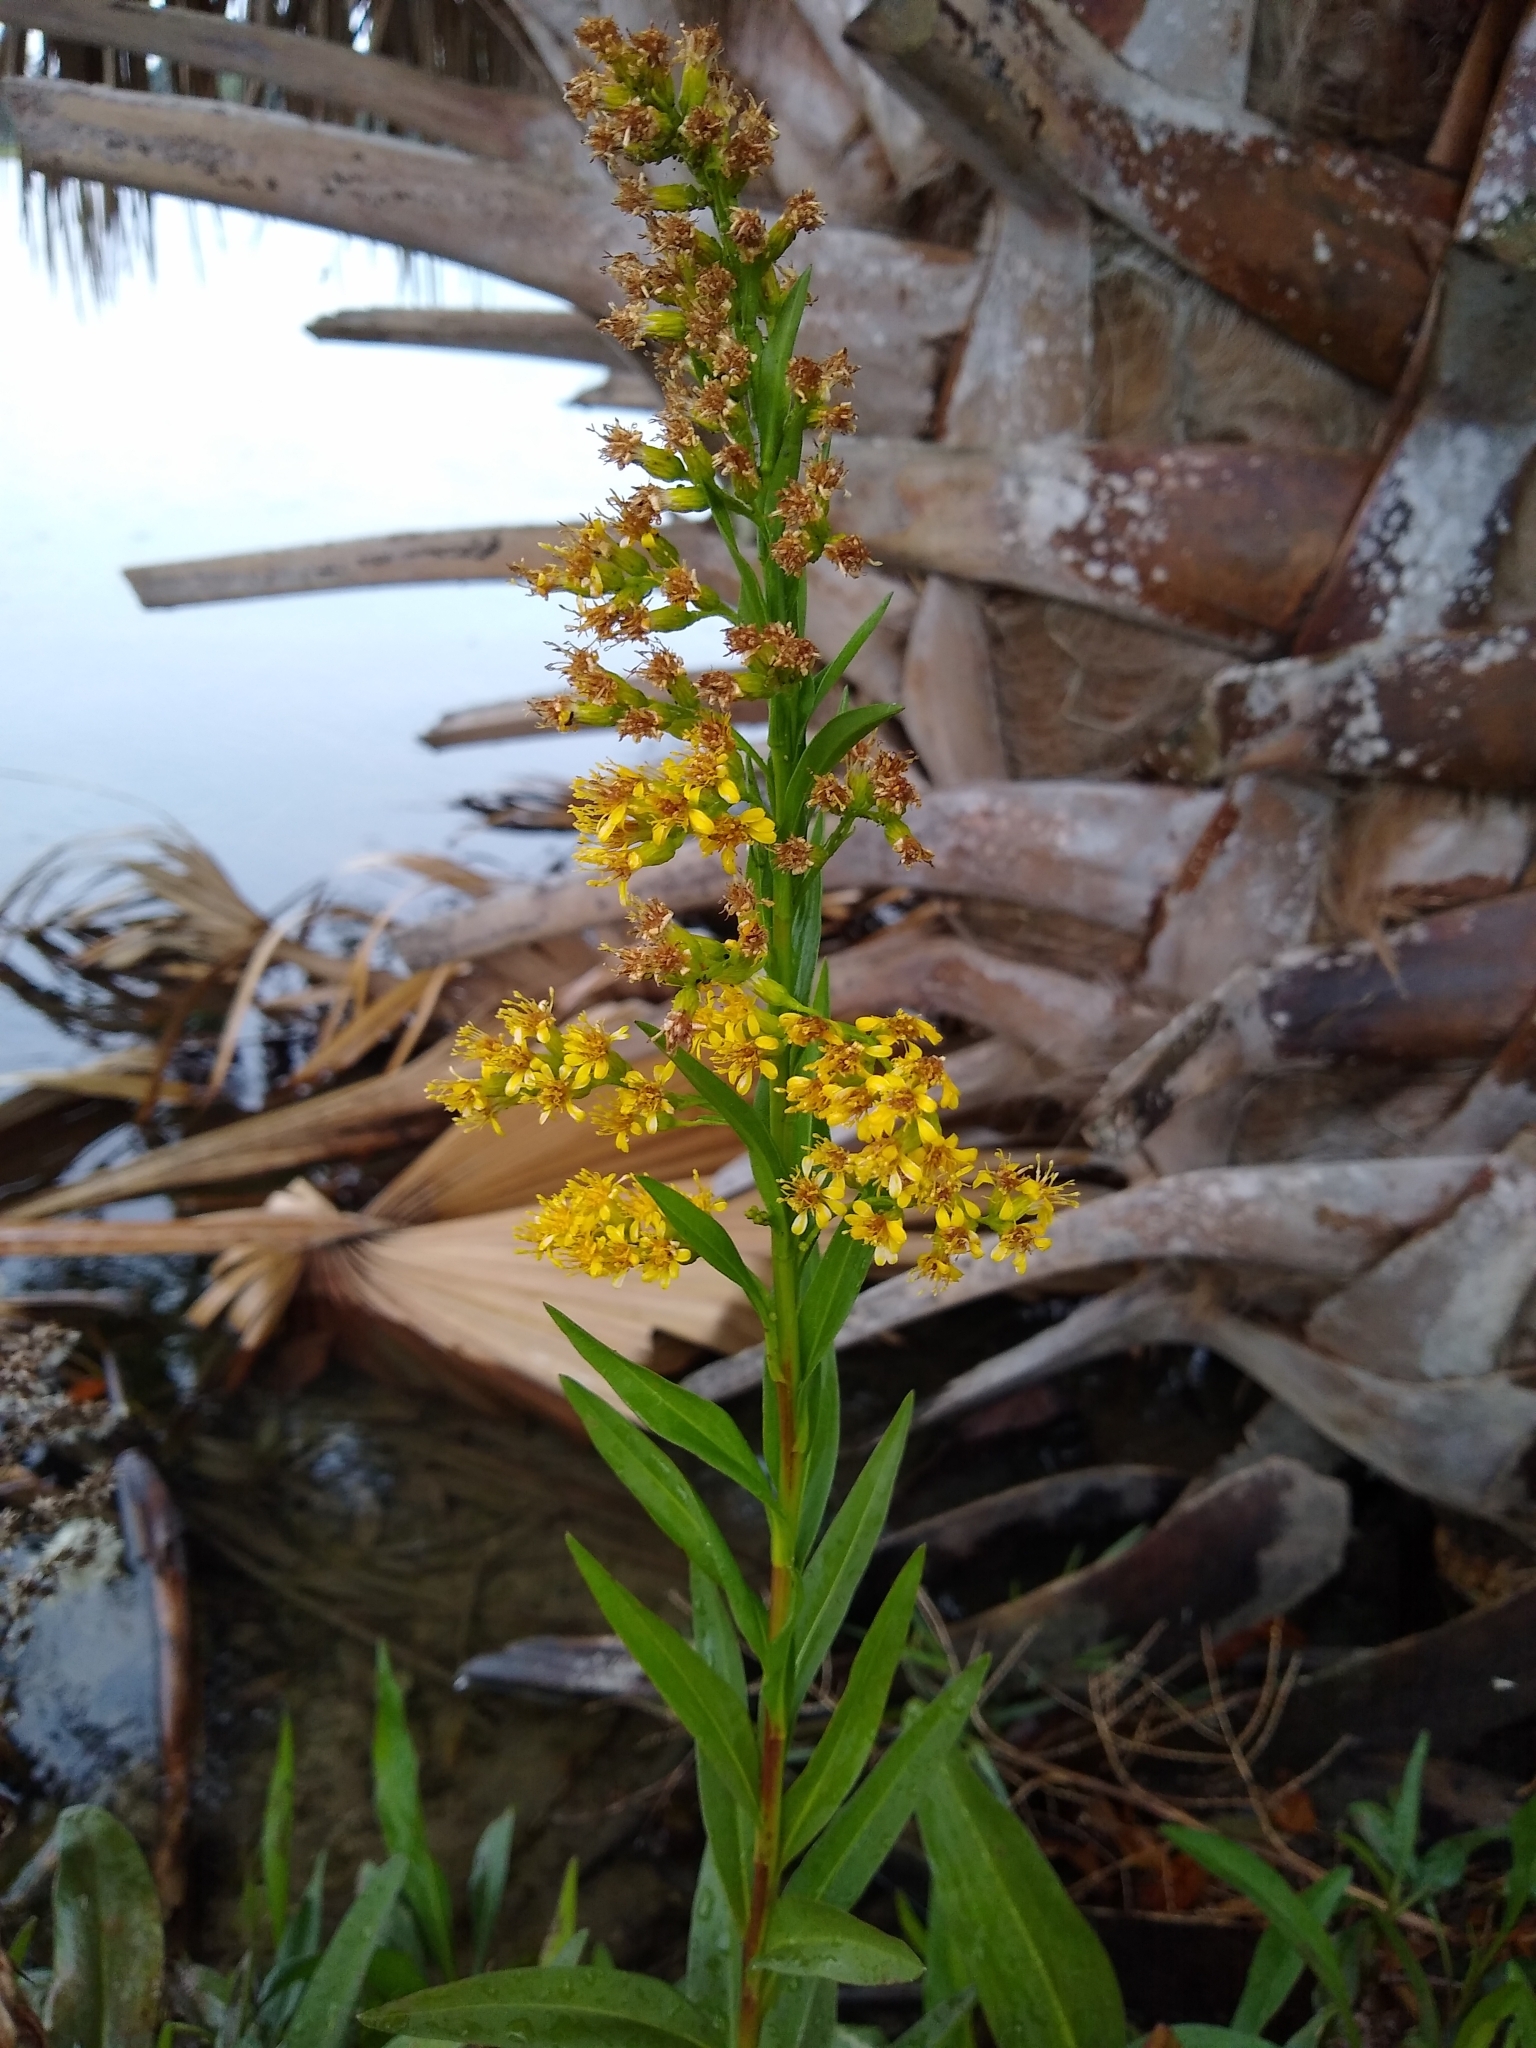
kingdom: Plantae
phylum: Tracheophyta
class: Magnoliopsida
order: Asterales
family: Asteraceae
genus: Solidago
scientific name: Solidago mexicana
